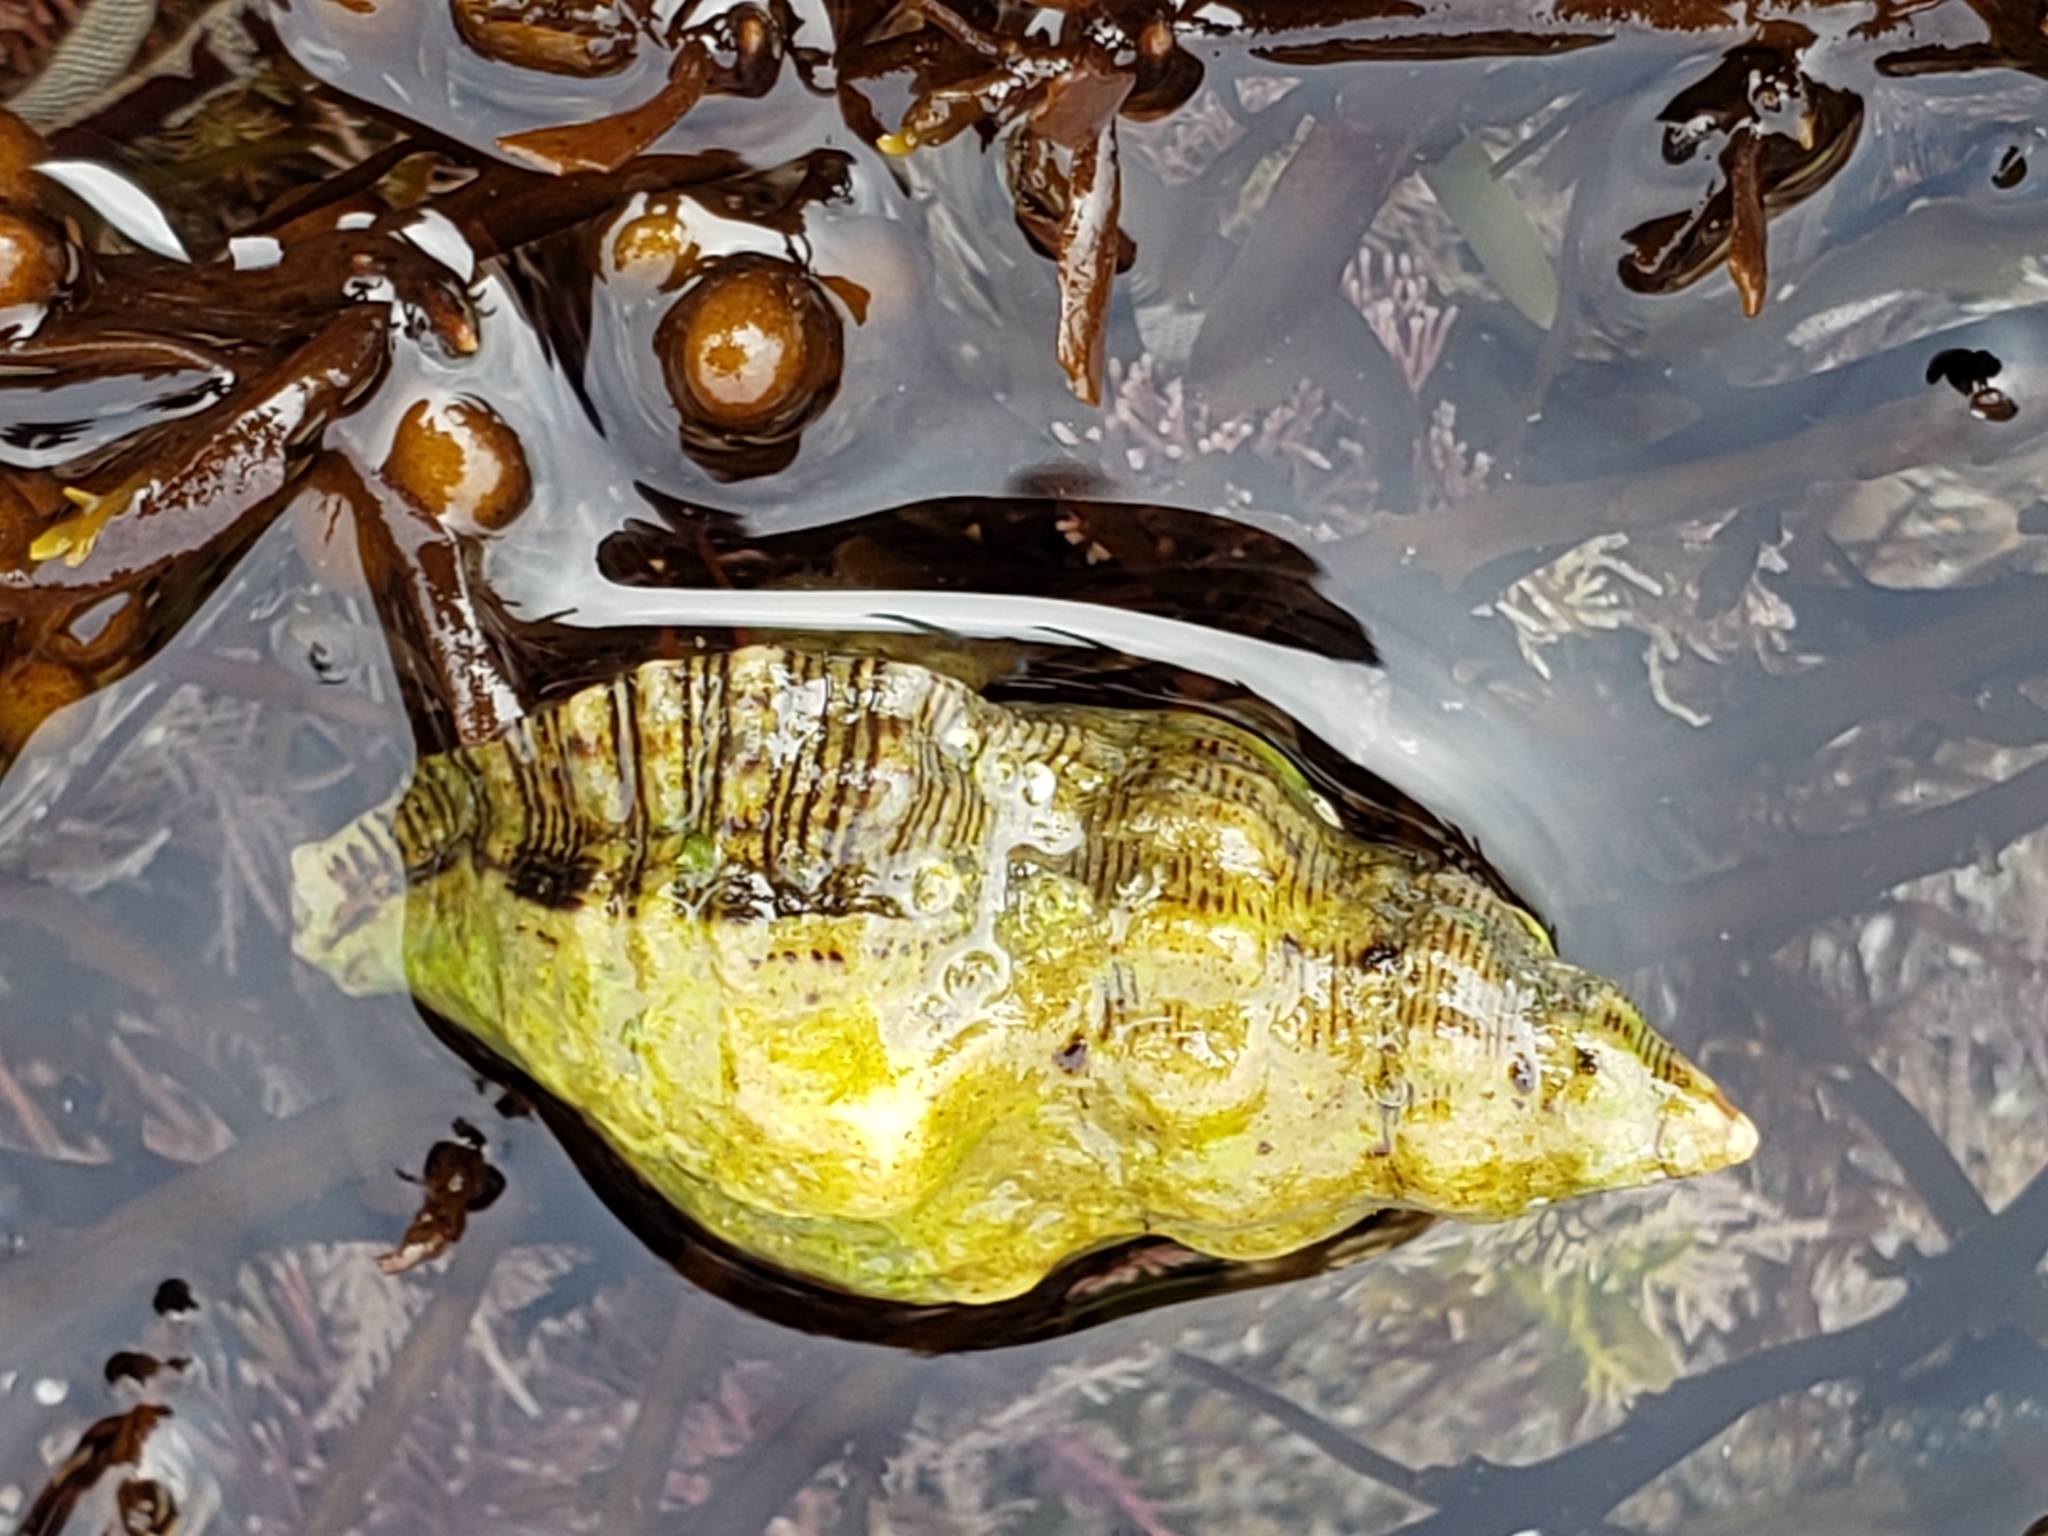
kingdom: Animalia
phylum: Mollusca
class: Gastropoda
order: Neogastropoda
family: Muricidae
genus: Roperia
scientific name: Roperia poulsoni
